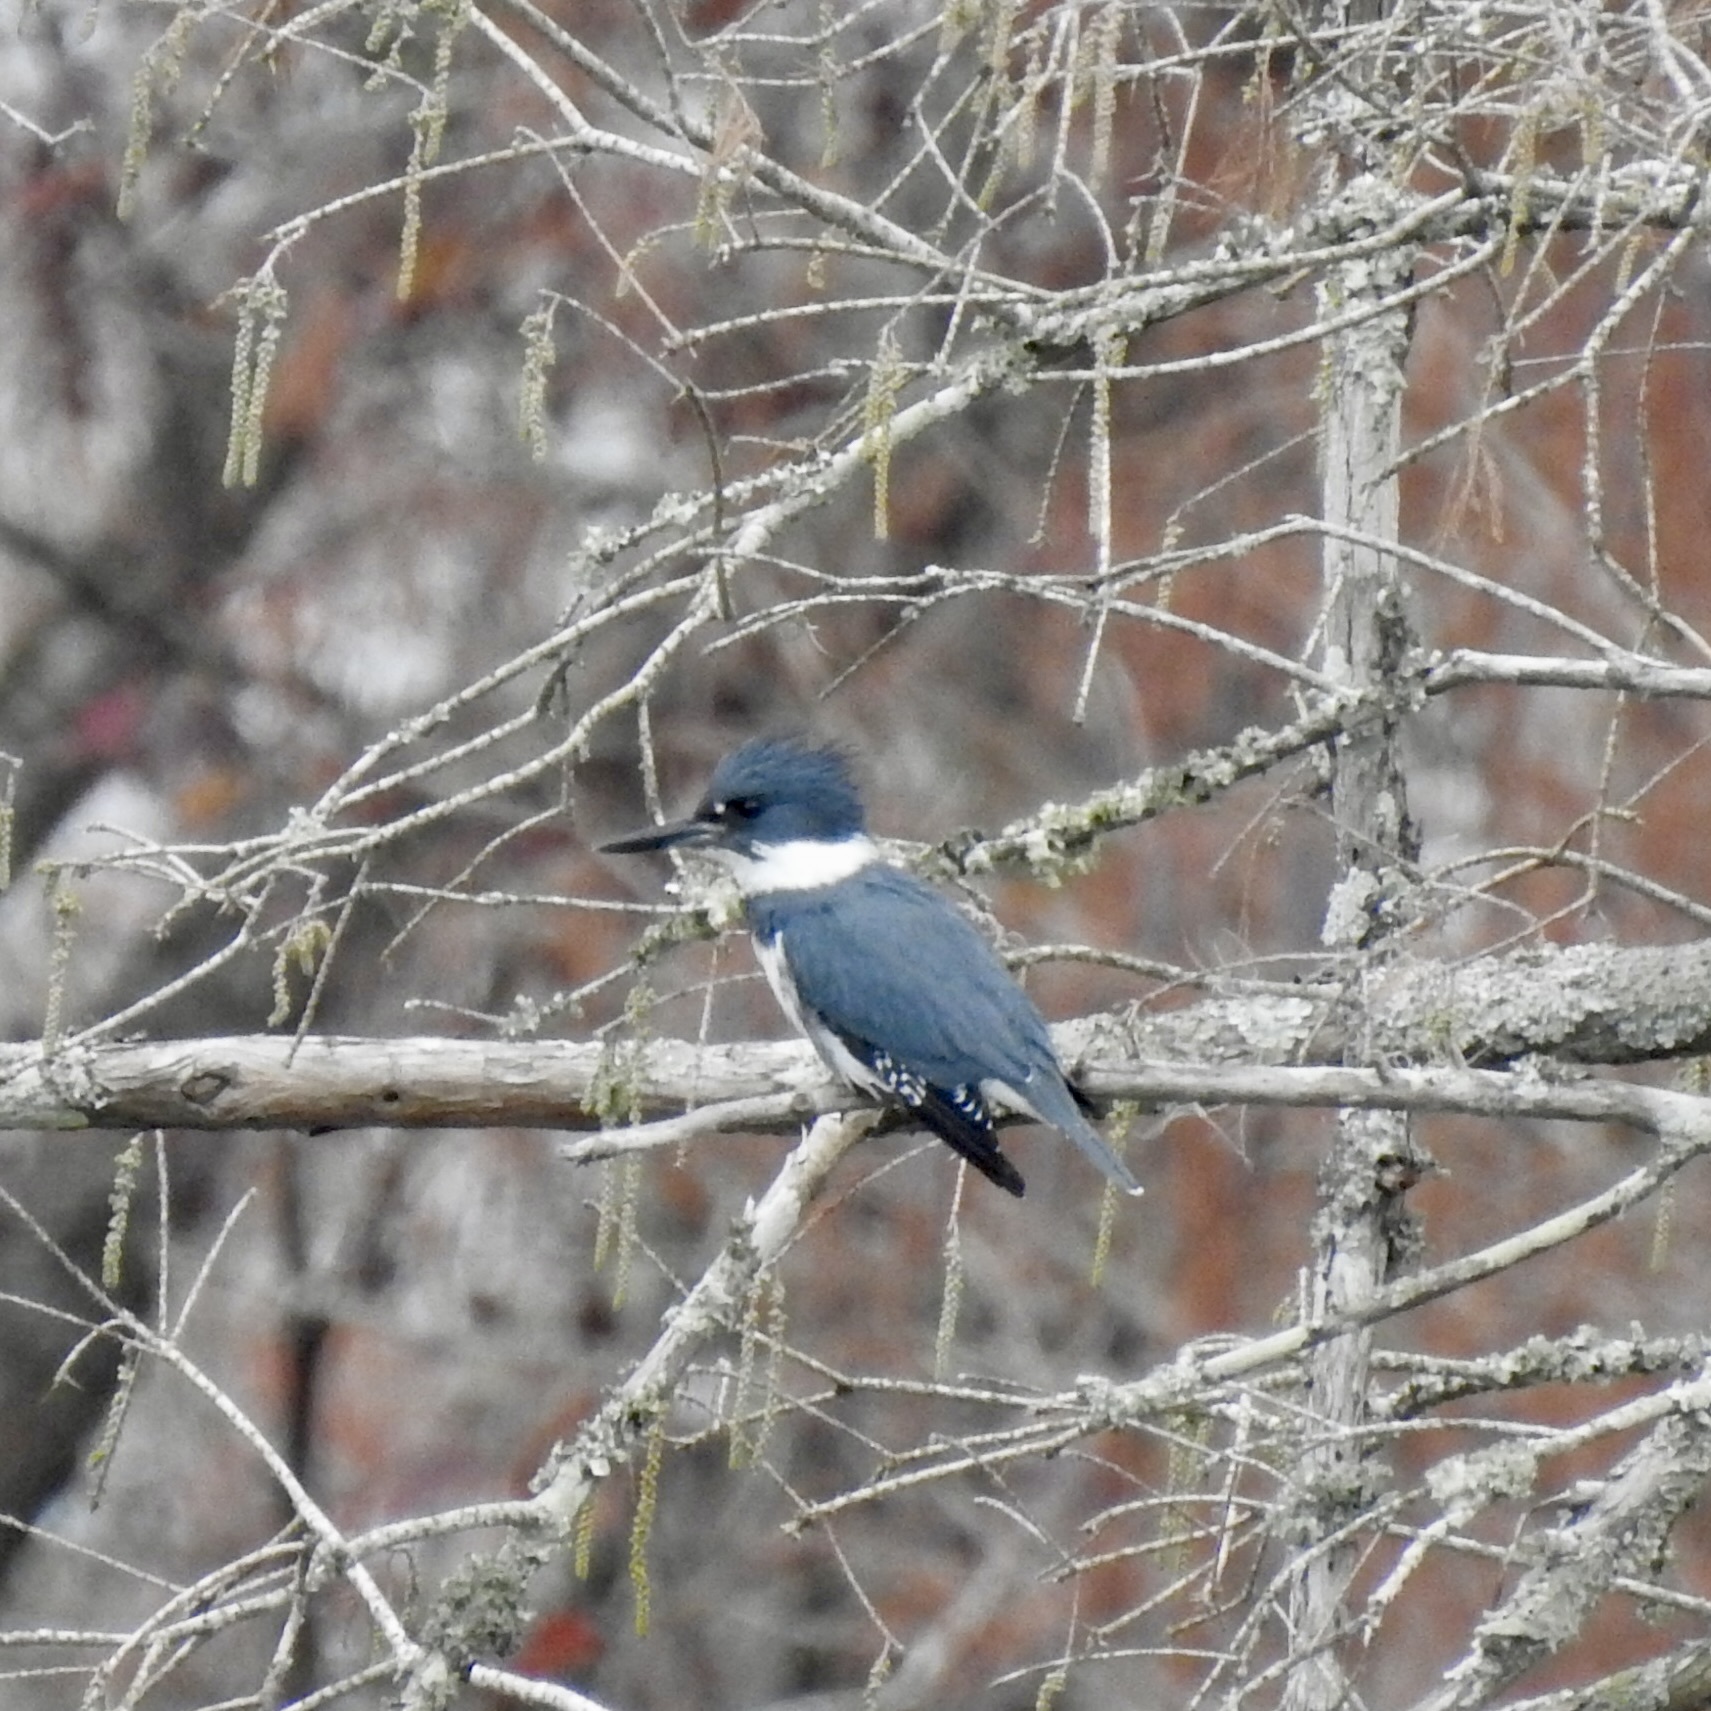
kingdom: Animalia
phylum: Chordata
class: Aves
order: Coraciiformes
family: Alcedinidae
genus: Megaceryle
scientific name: Megaceryle alcyon
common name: Belted kingfisher
